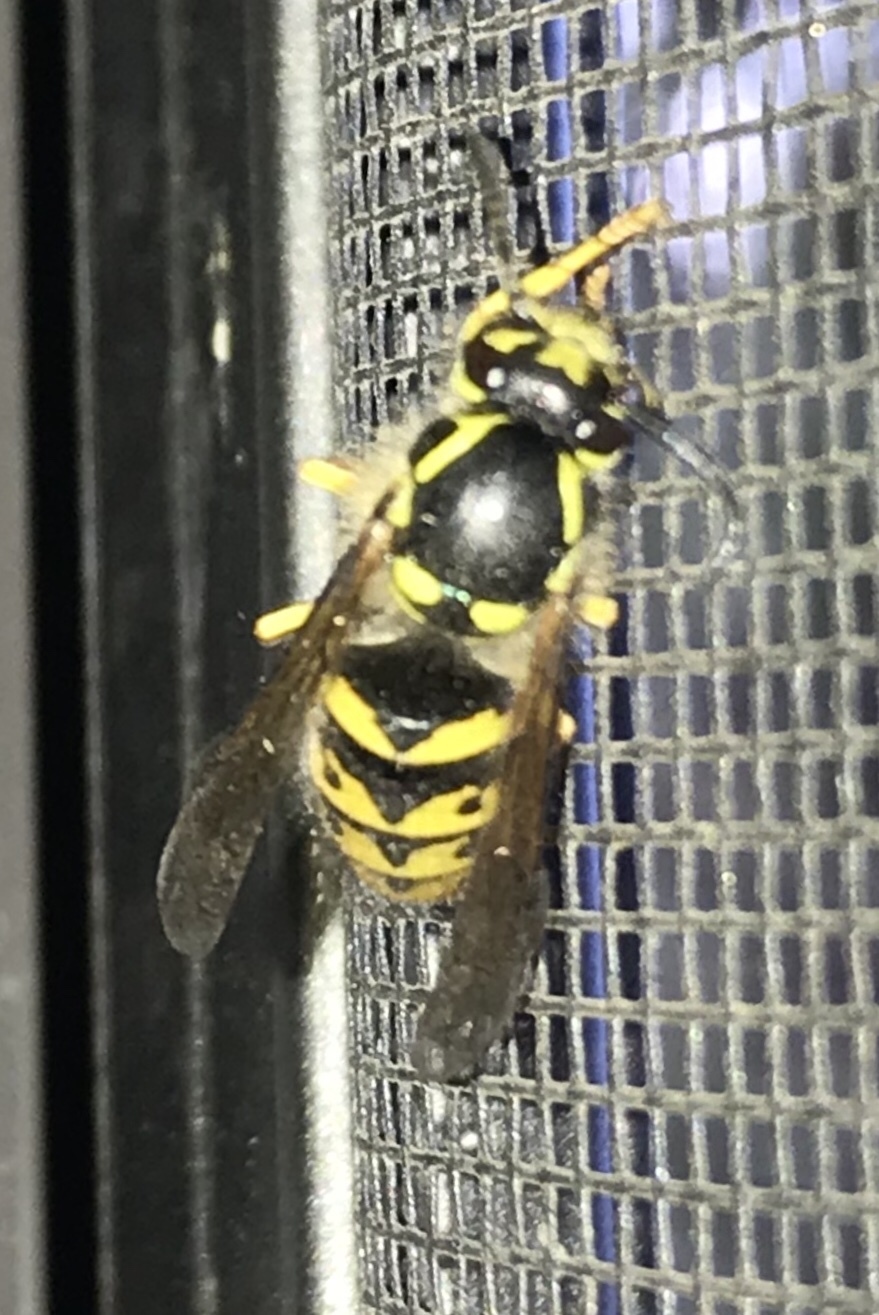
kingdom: Animalia
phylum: Arthropoda
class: Insecta
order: Hymenoptera
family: Vespidae
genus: Dolichovespula
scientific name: Dolichovespula arenaria
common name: Aerial yellowjacket
